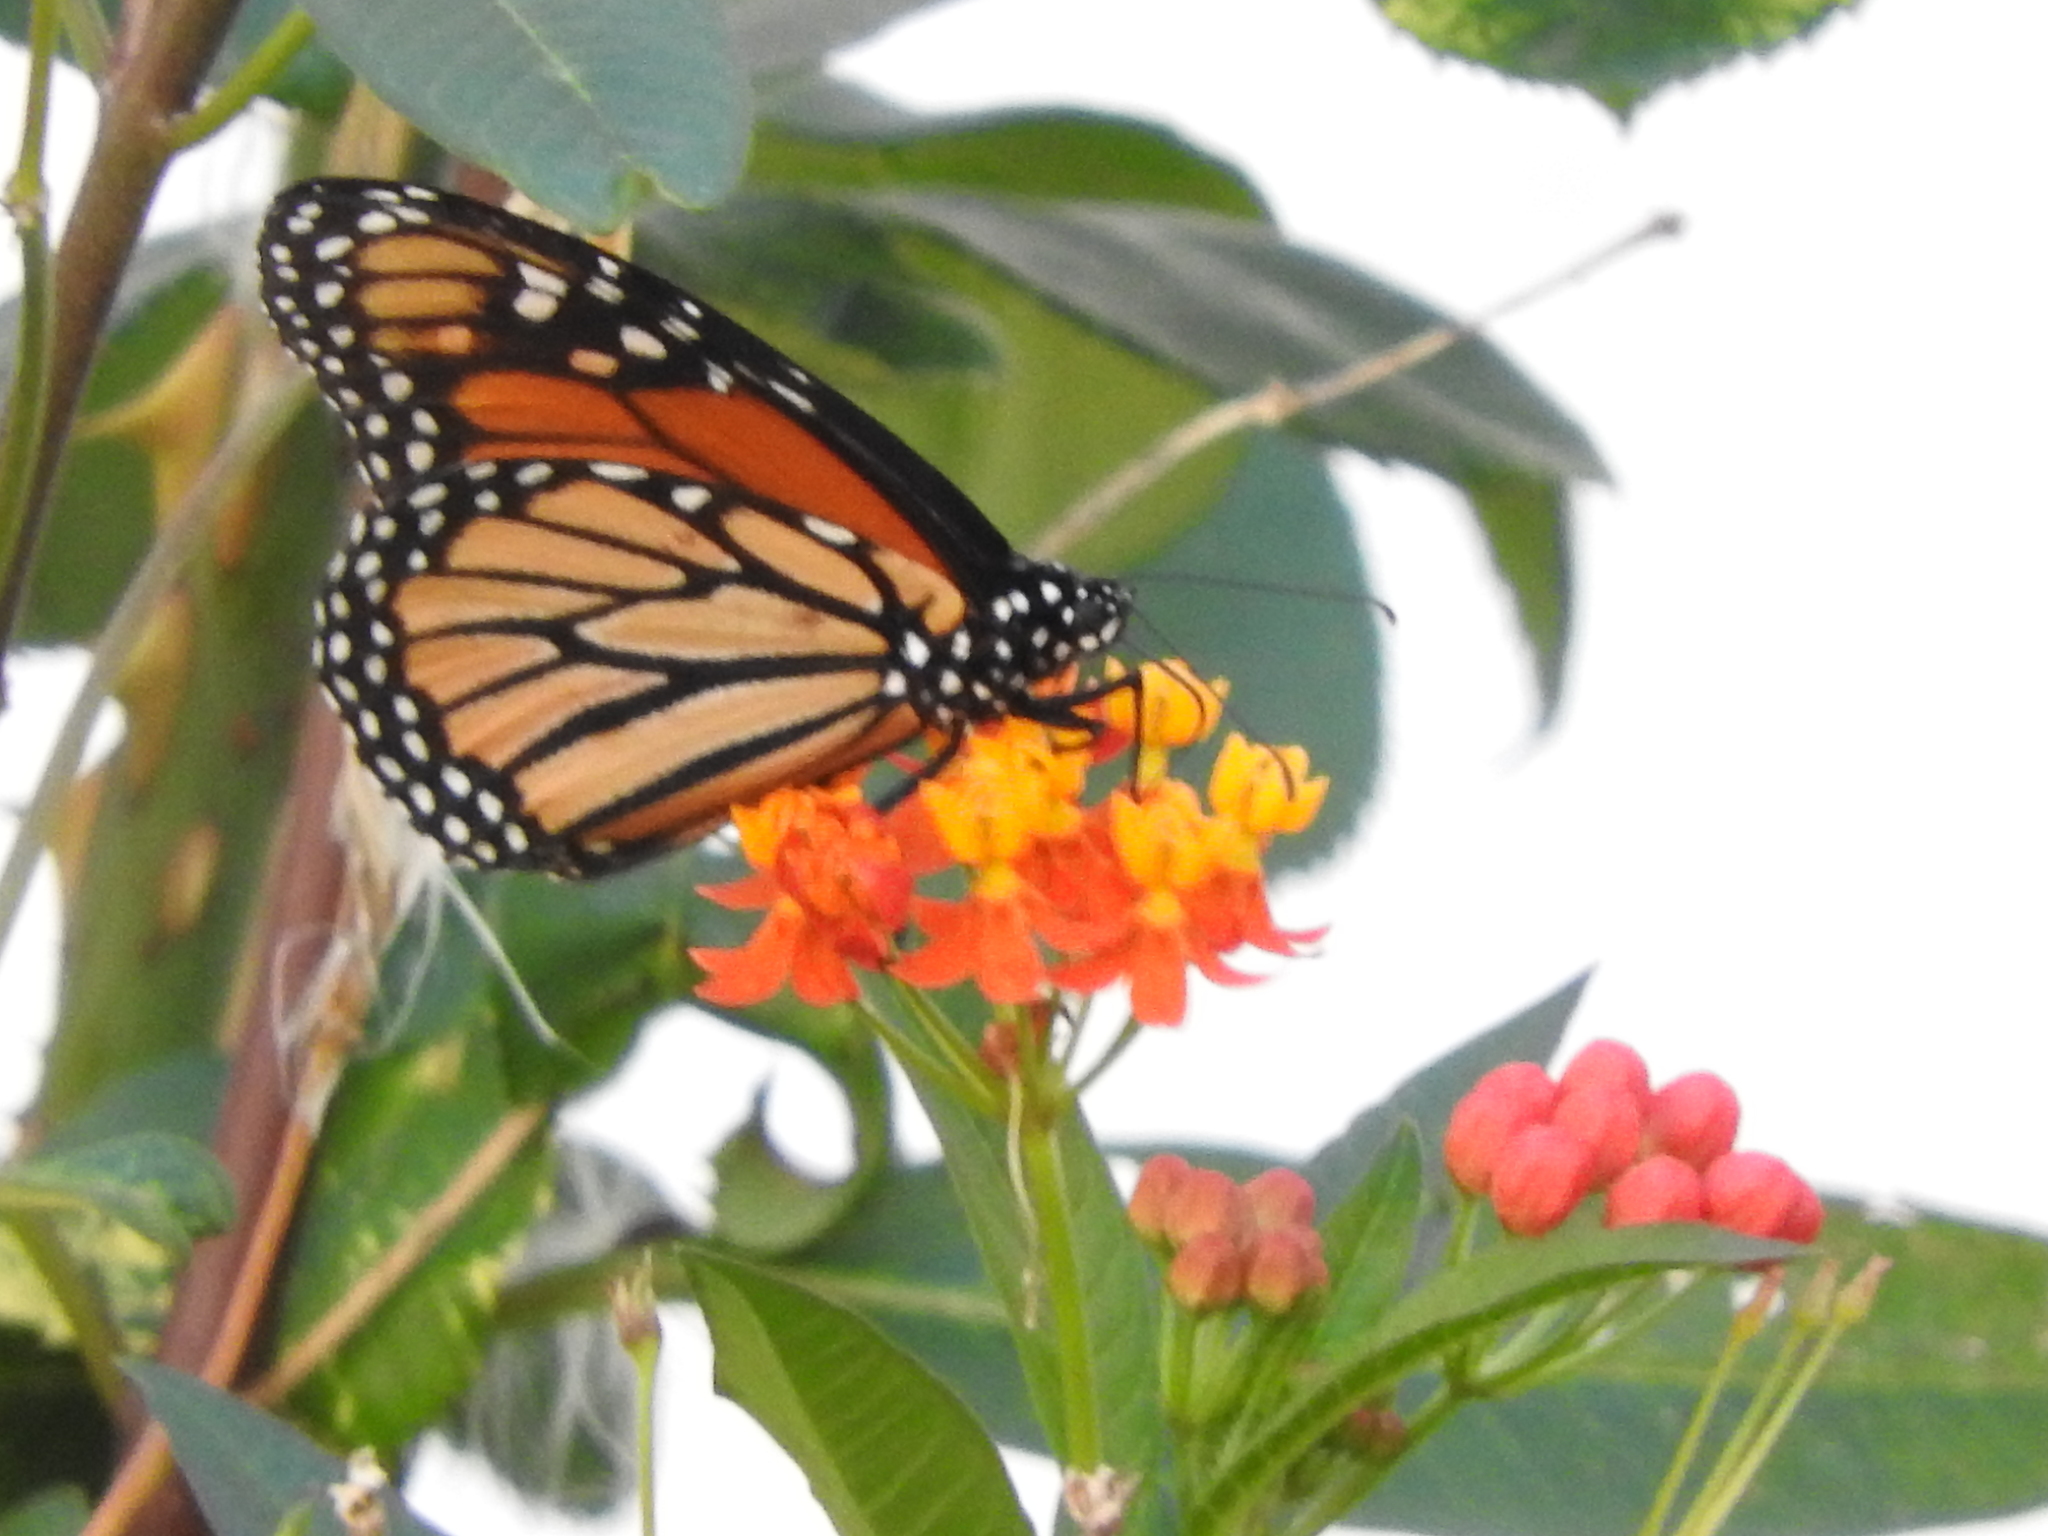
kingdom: Animalia
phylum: Arthropoda
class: Insecta
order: Lepidoptera
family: Nymphalidae
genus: Danaus
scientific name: Danaus plexippus
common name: Monarch
